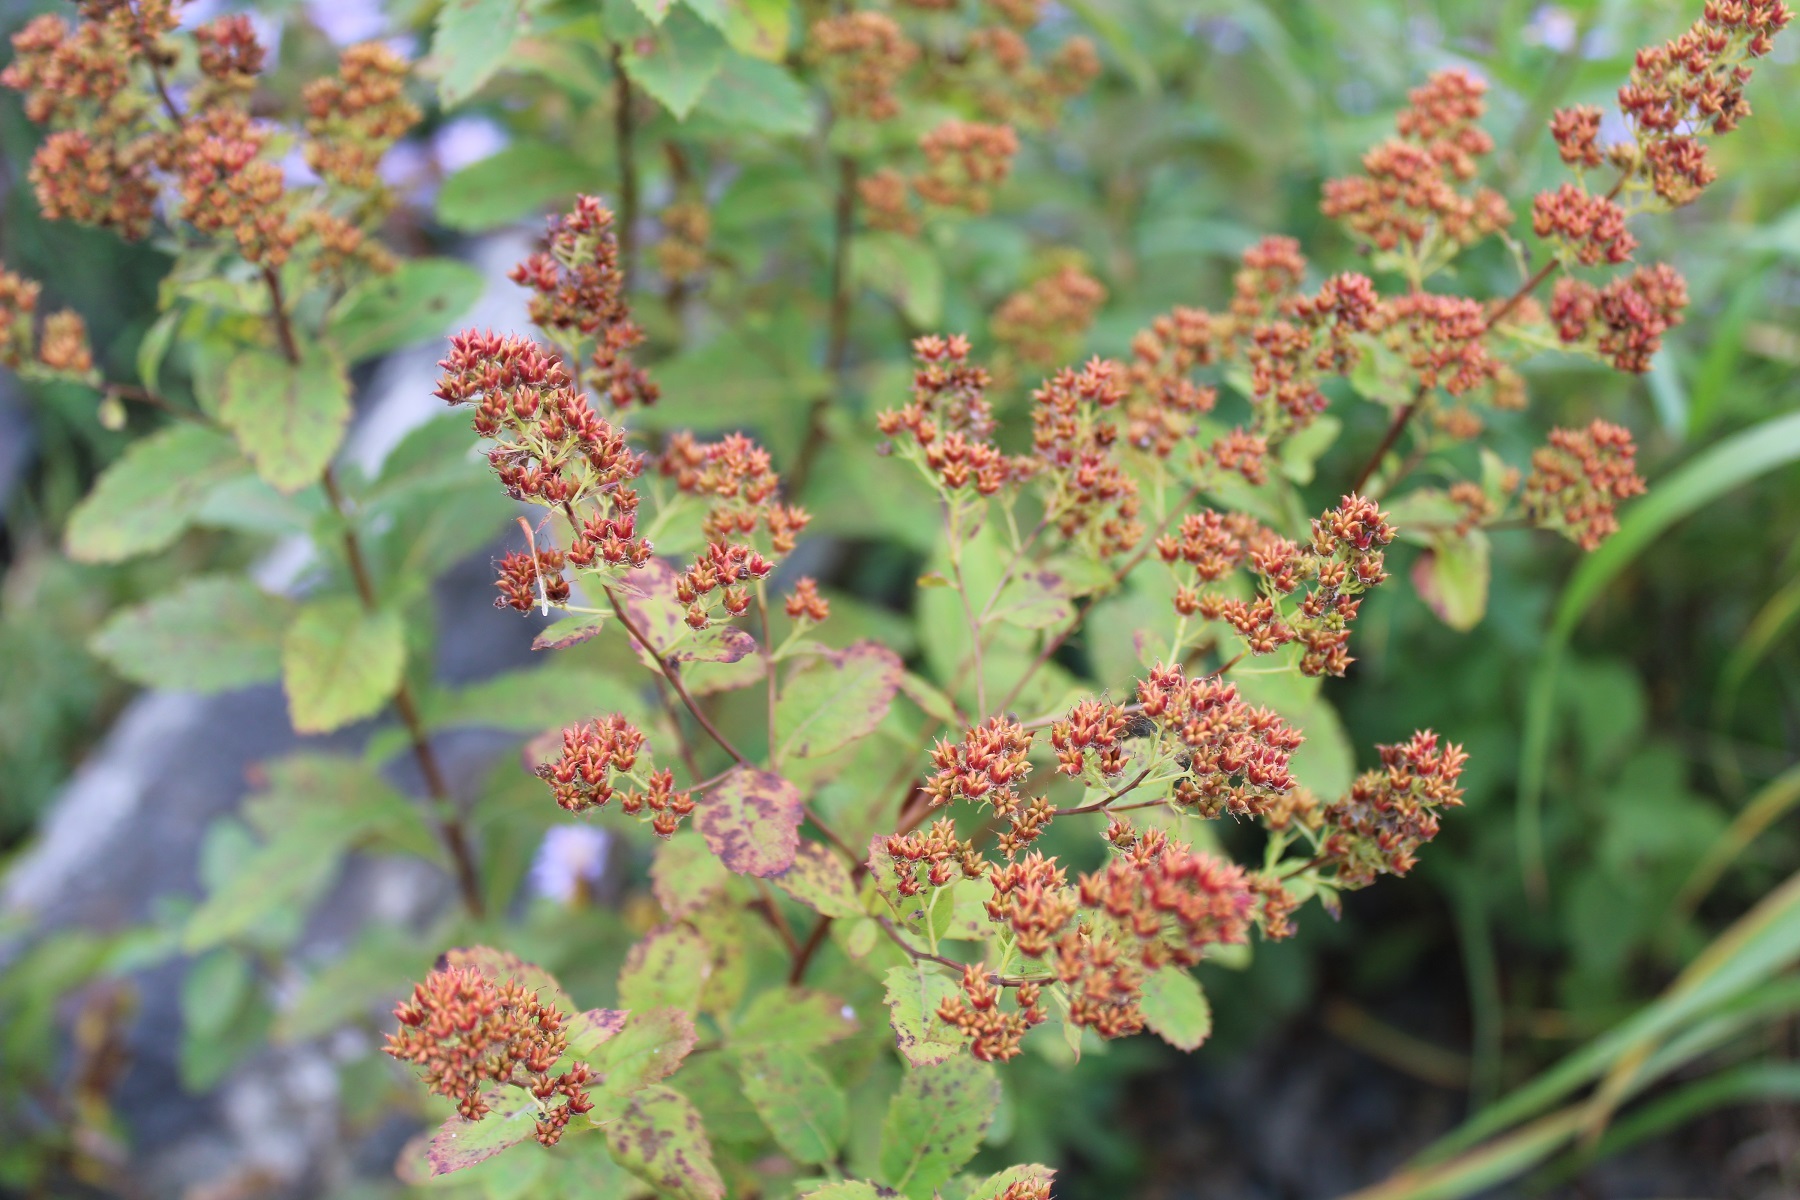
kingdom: Plantae
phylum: Tracheophyta
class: Magnoliopsida
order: Rosales
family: Rosaceae
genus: Spiraea
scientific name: Spiraea alba
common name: Pale bridewort
